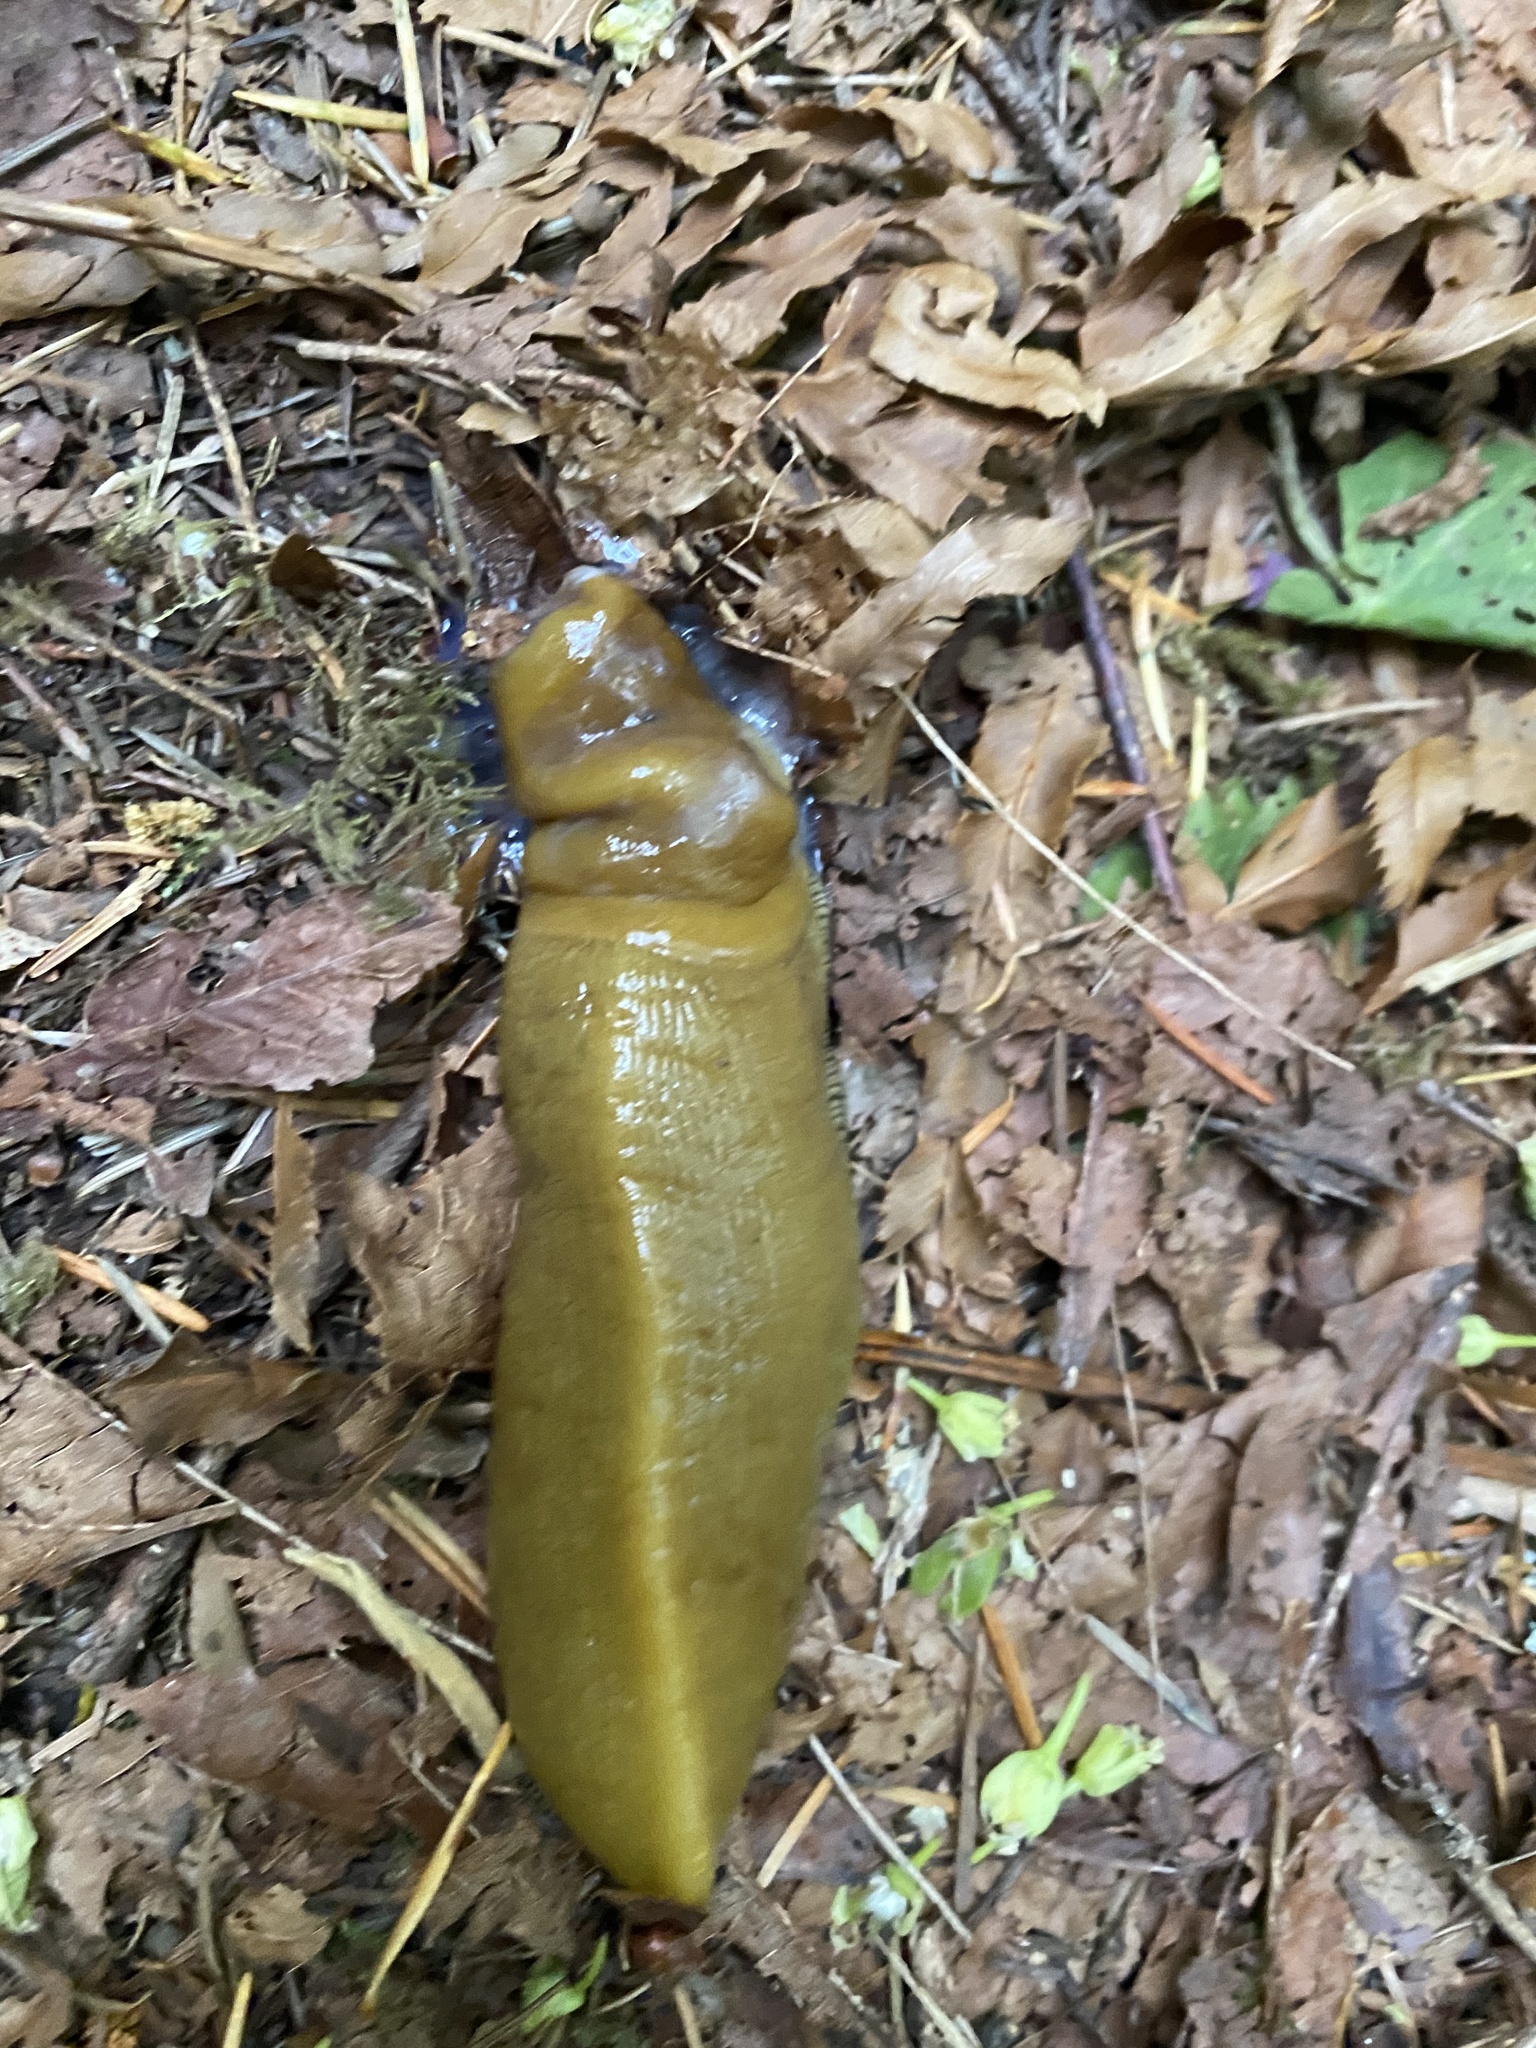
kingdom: Animalia
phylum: Mollusca
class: Gastropoda
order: Stylommatophora
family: Ariolimacidae
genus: Ariolimax
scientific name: Ariolimax buttoni
